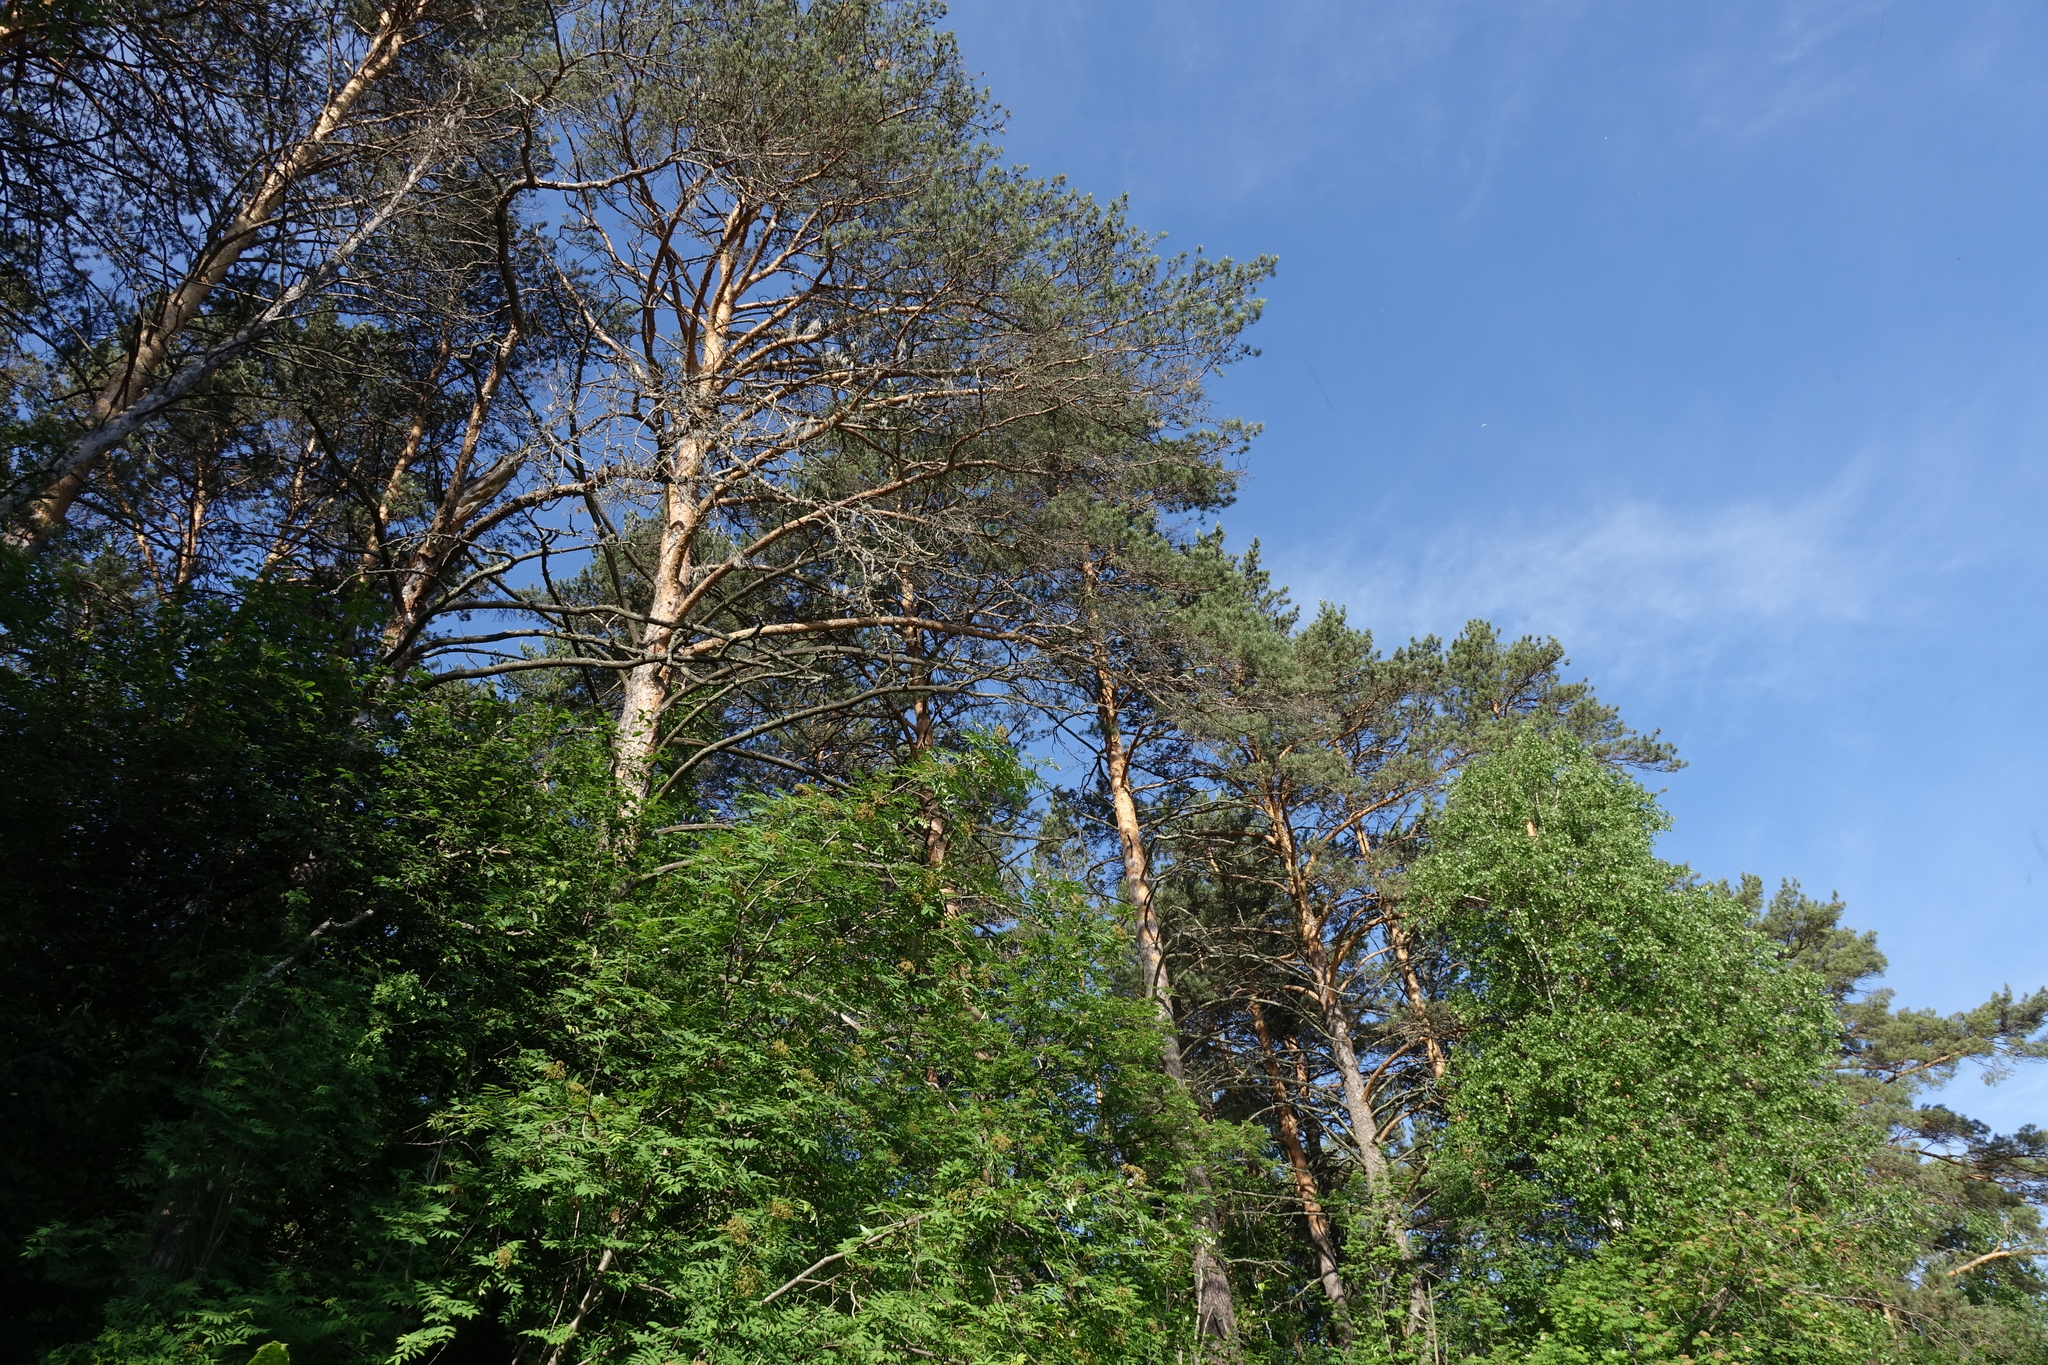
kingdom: Plantae
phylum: Tracheophyta
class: Pinopsida
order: Pinales
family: Pinaceae
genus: Pinus
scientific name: Pinus sylvestris
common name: Scots pine
